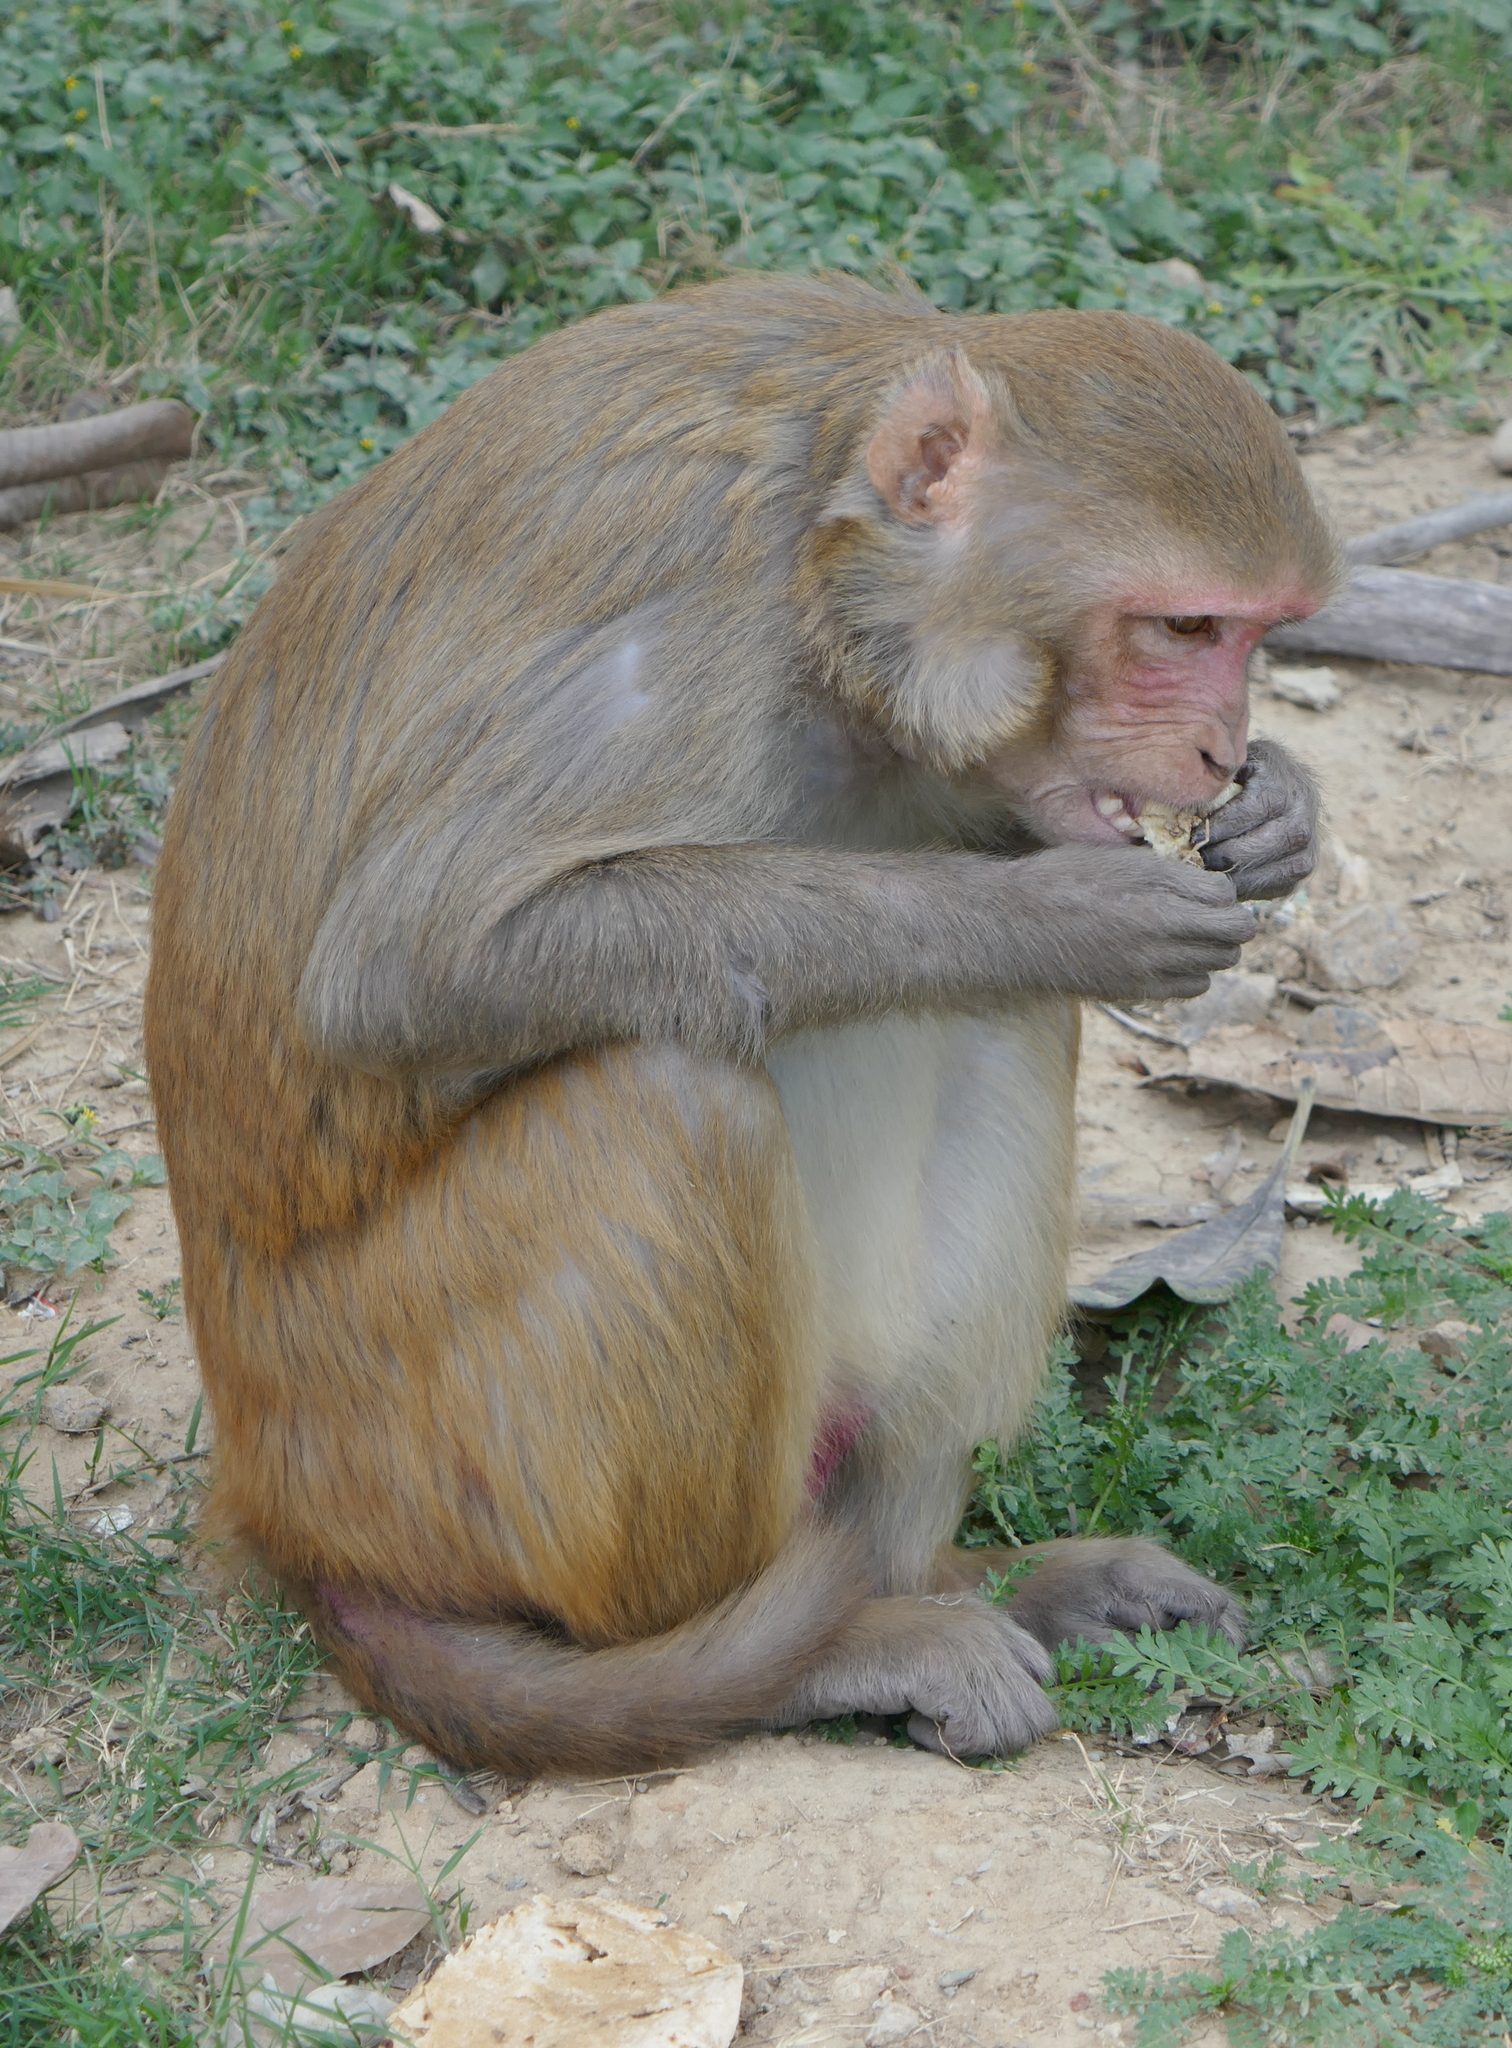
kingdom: Animalia
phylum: Chordata
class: Mammalia
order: Primates
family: Cercopithecidae
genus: Macaca
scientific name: Macaca mulatta
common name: Rhesus monkey
